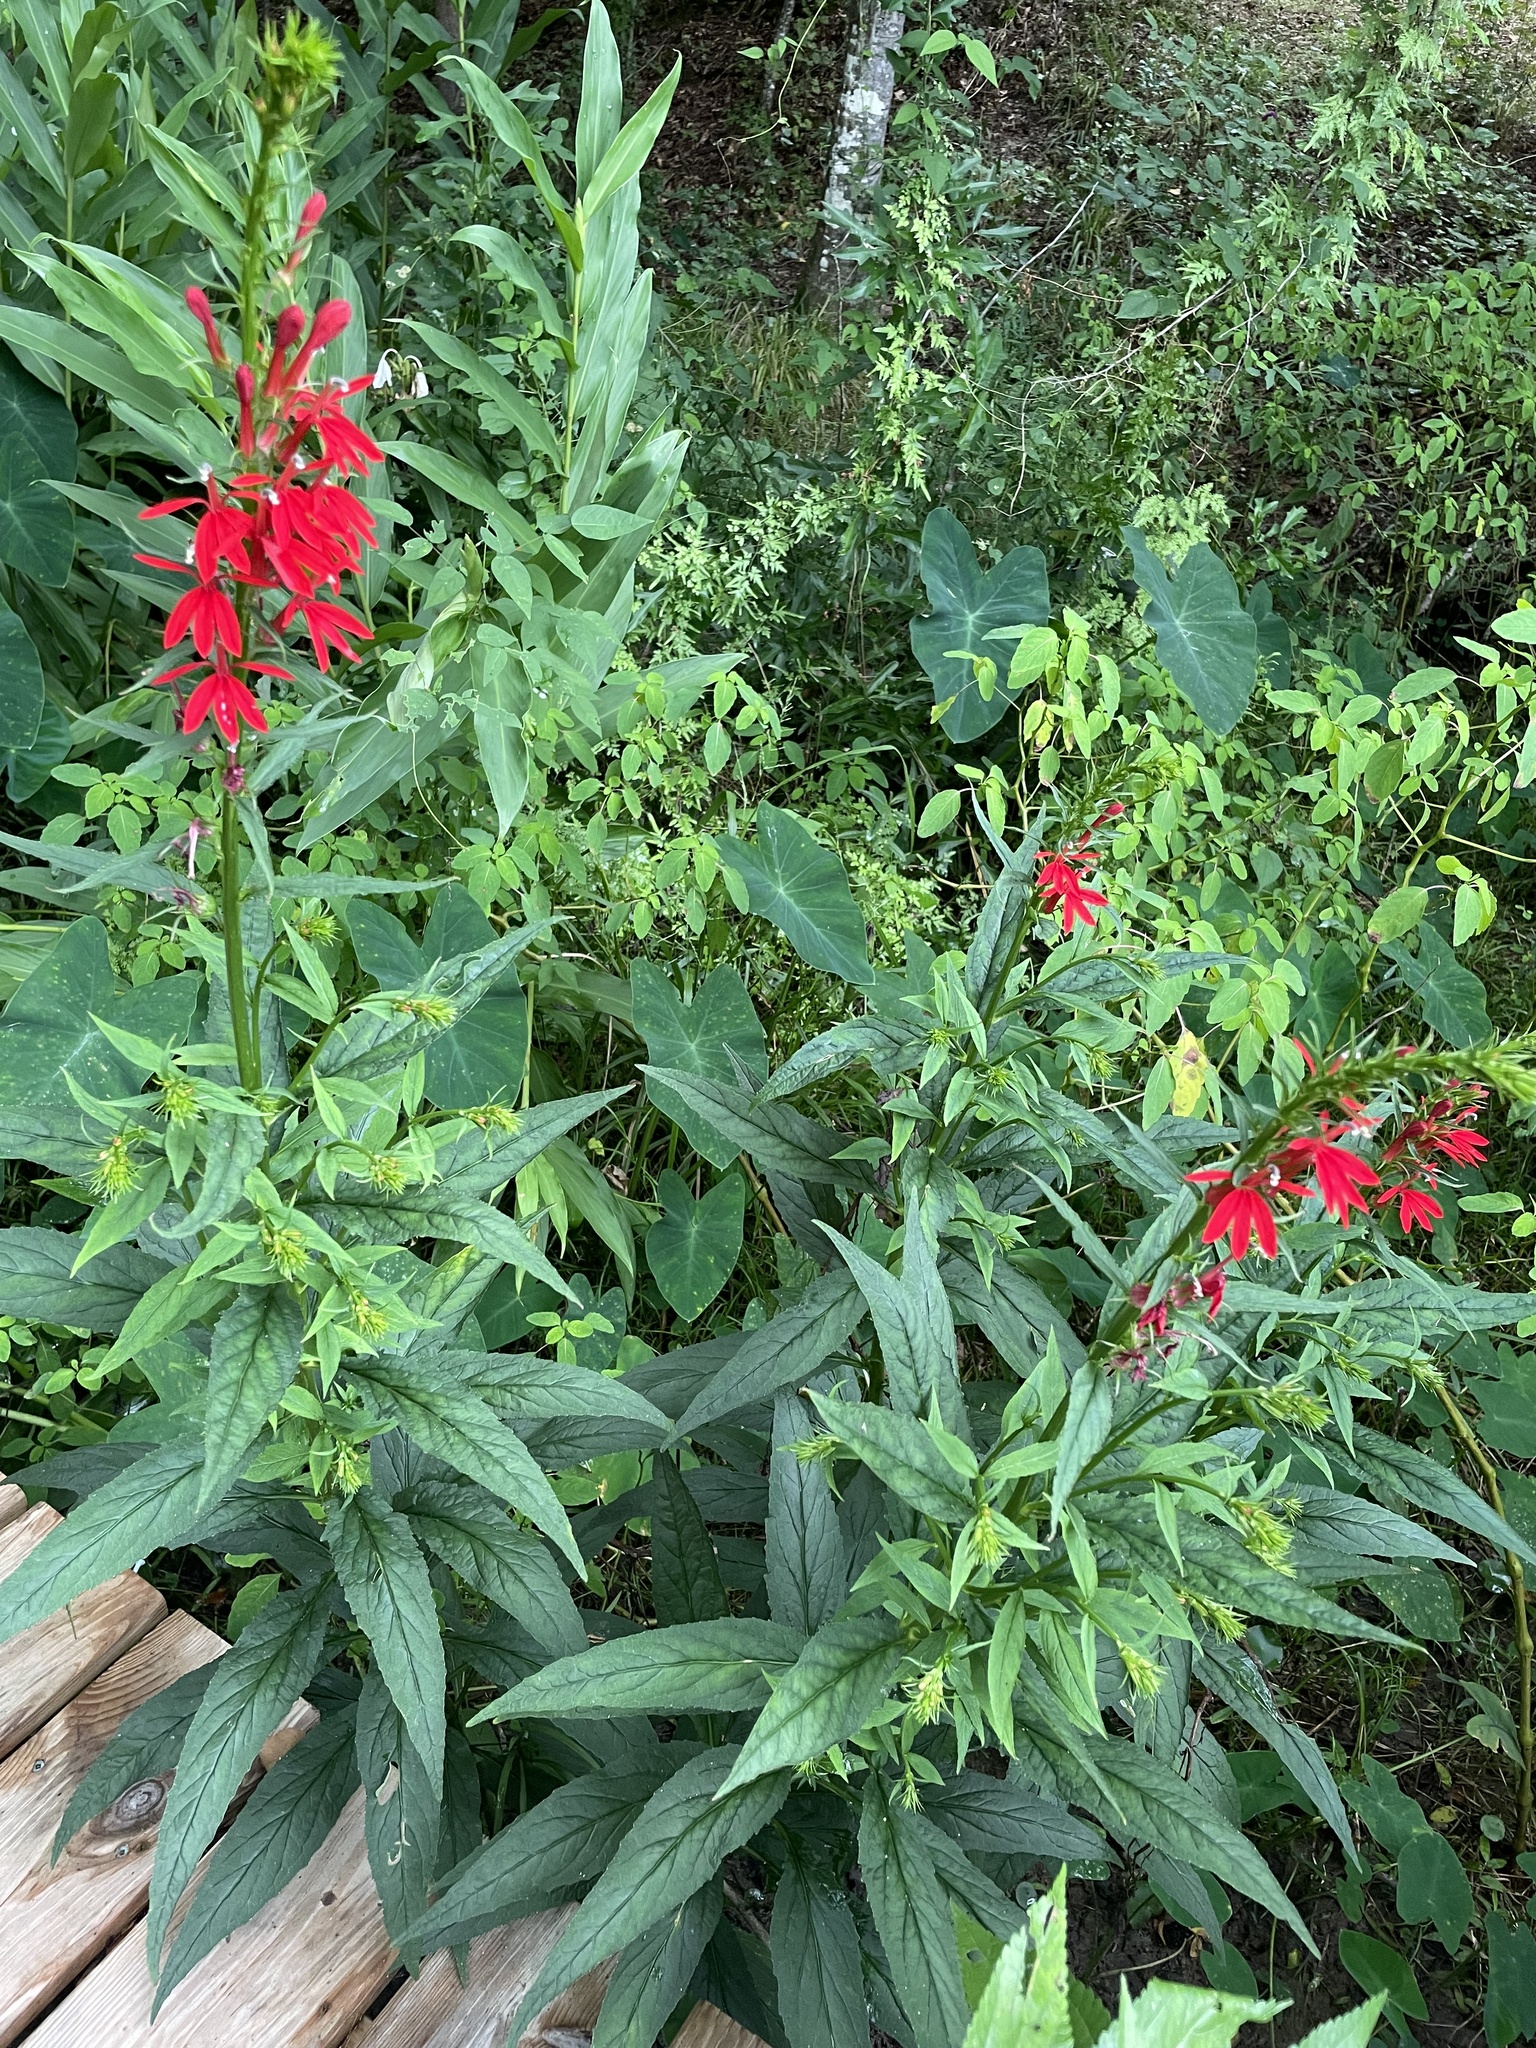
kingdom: Plantae
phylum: Tracheophyta
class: Magnoliopsida
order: Asterales
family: Campanulaceae
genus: Lobelia
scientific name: Lobelia cardinalis
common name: Cardinal flower
